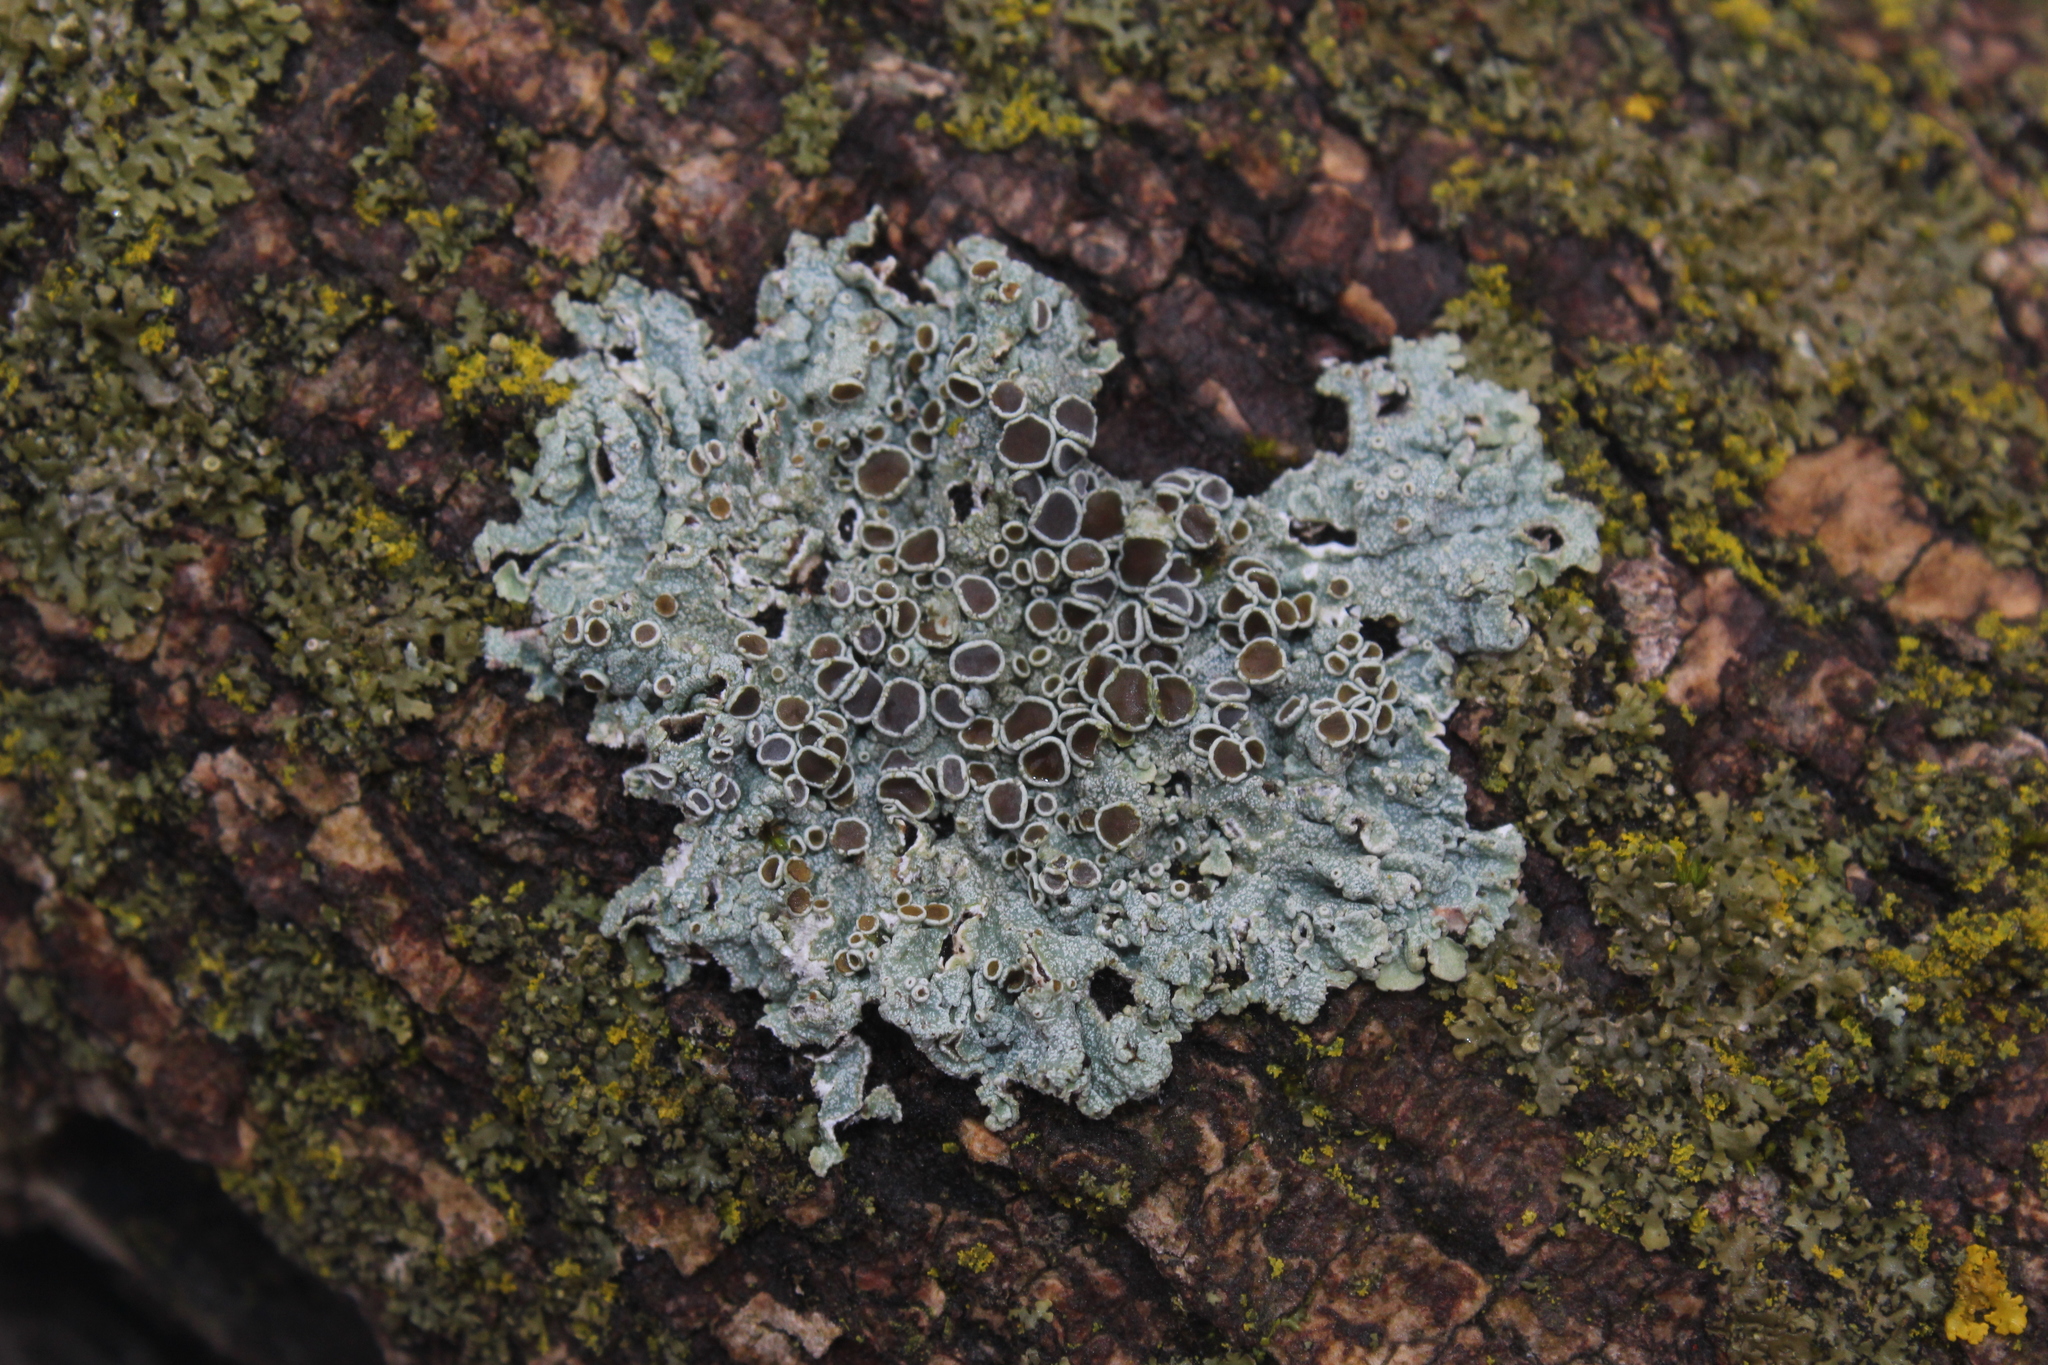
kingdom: Fungi
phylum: Ascomycota
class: Lecanoromycetes
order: Caliciales
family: Physciaceae
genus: Physcia
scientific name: Physcia stellaris
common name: Star rosette lichen
